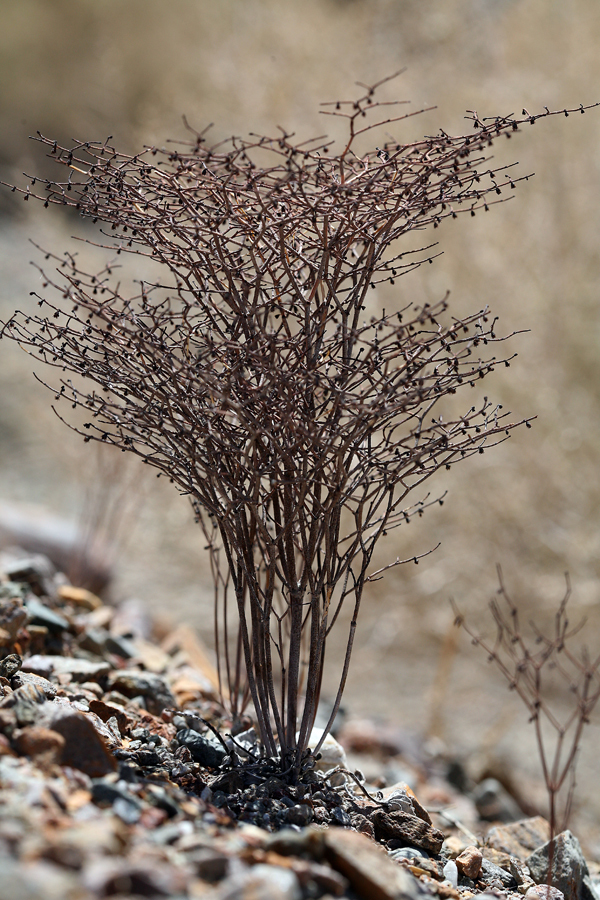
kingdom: Plantae
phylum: Tracheophyta
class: Magnoliopsida
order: Caryophyllales
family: Polygonaceae
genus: Eriogonum
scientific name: Eriogonum rixfordii
